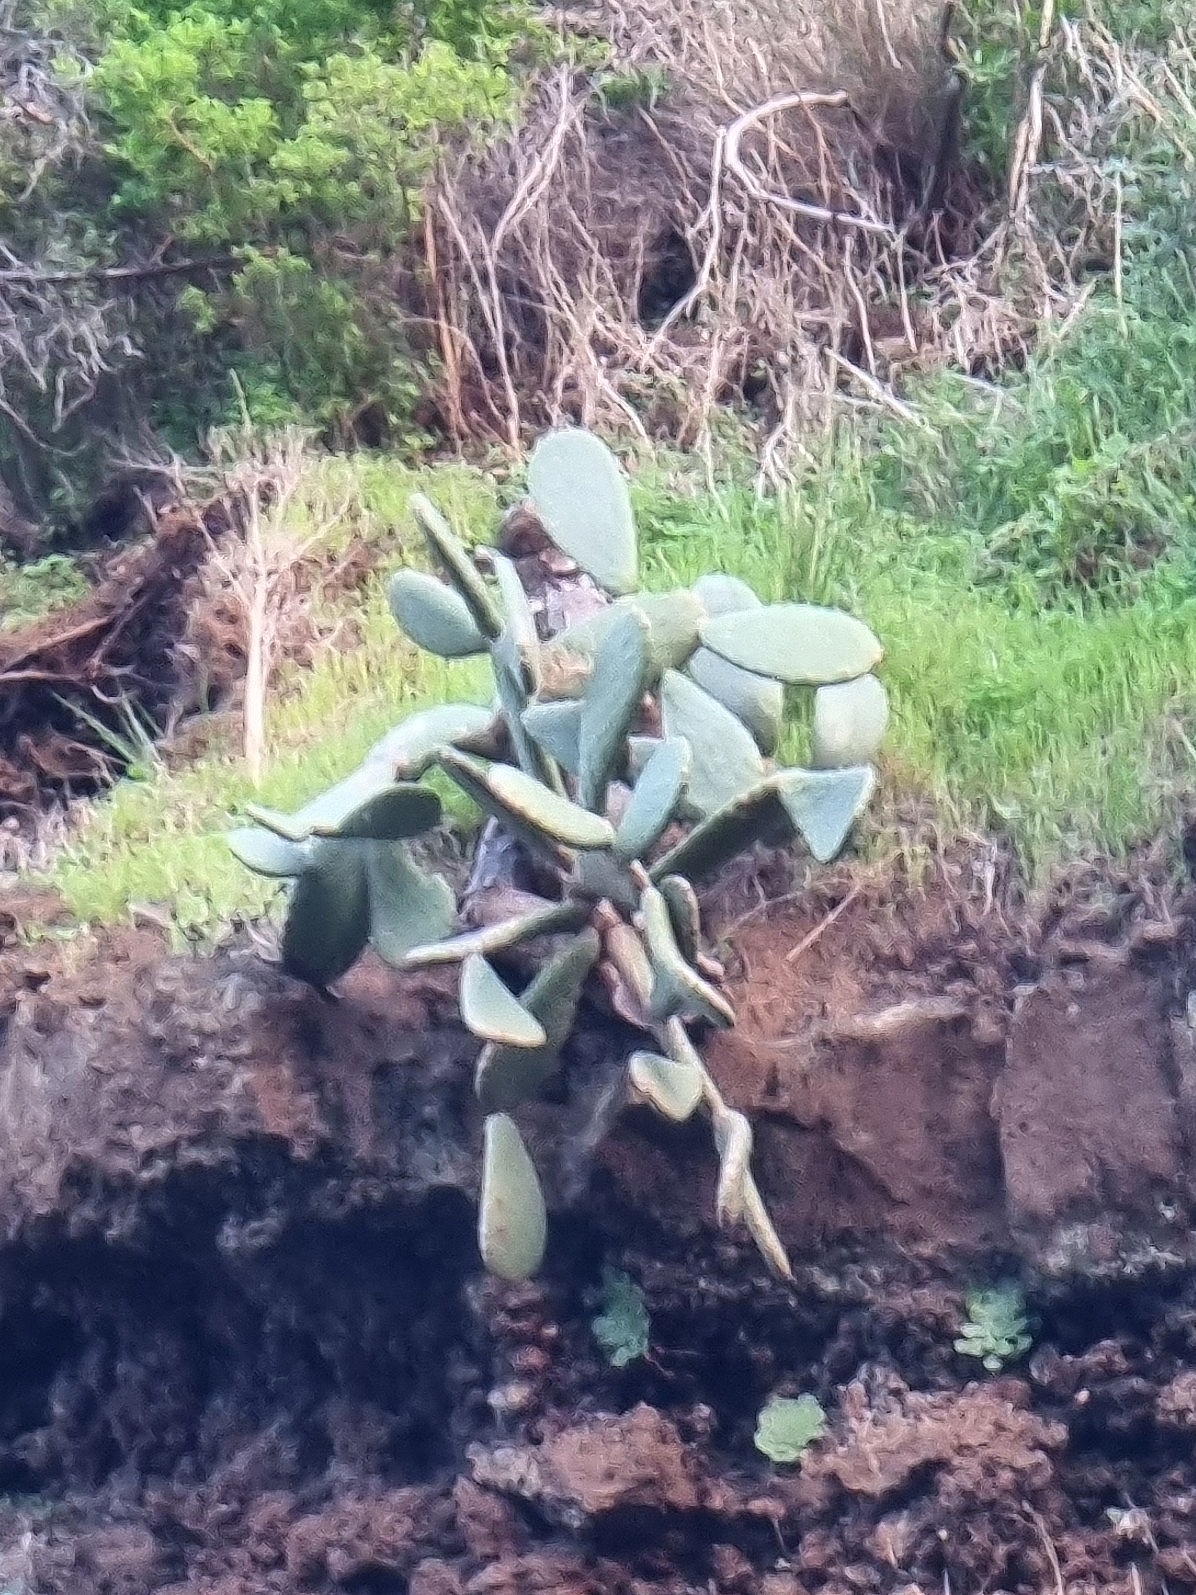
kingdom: Plantae
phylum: Tracheophyta
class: Magnoliopsida
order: Caryophyllales
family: Cactaceae
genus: Opuntia
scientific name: Opuntia ficus-indica
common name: Barbary fig
